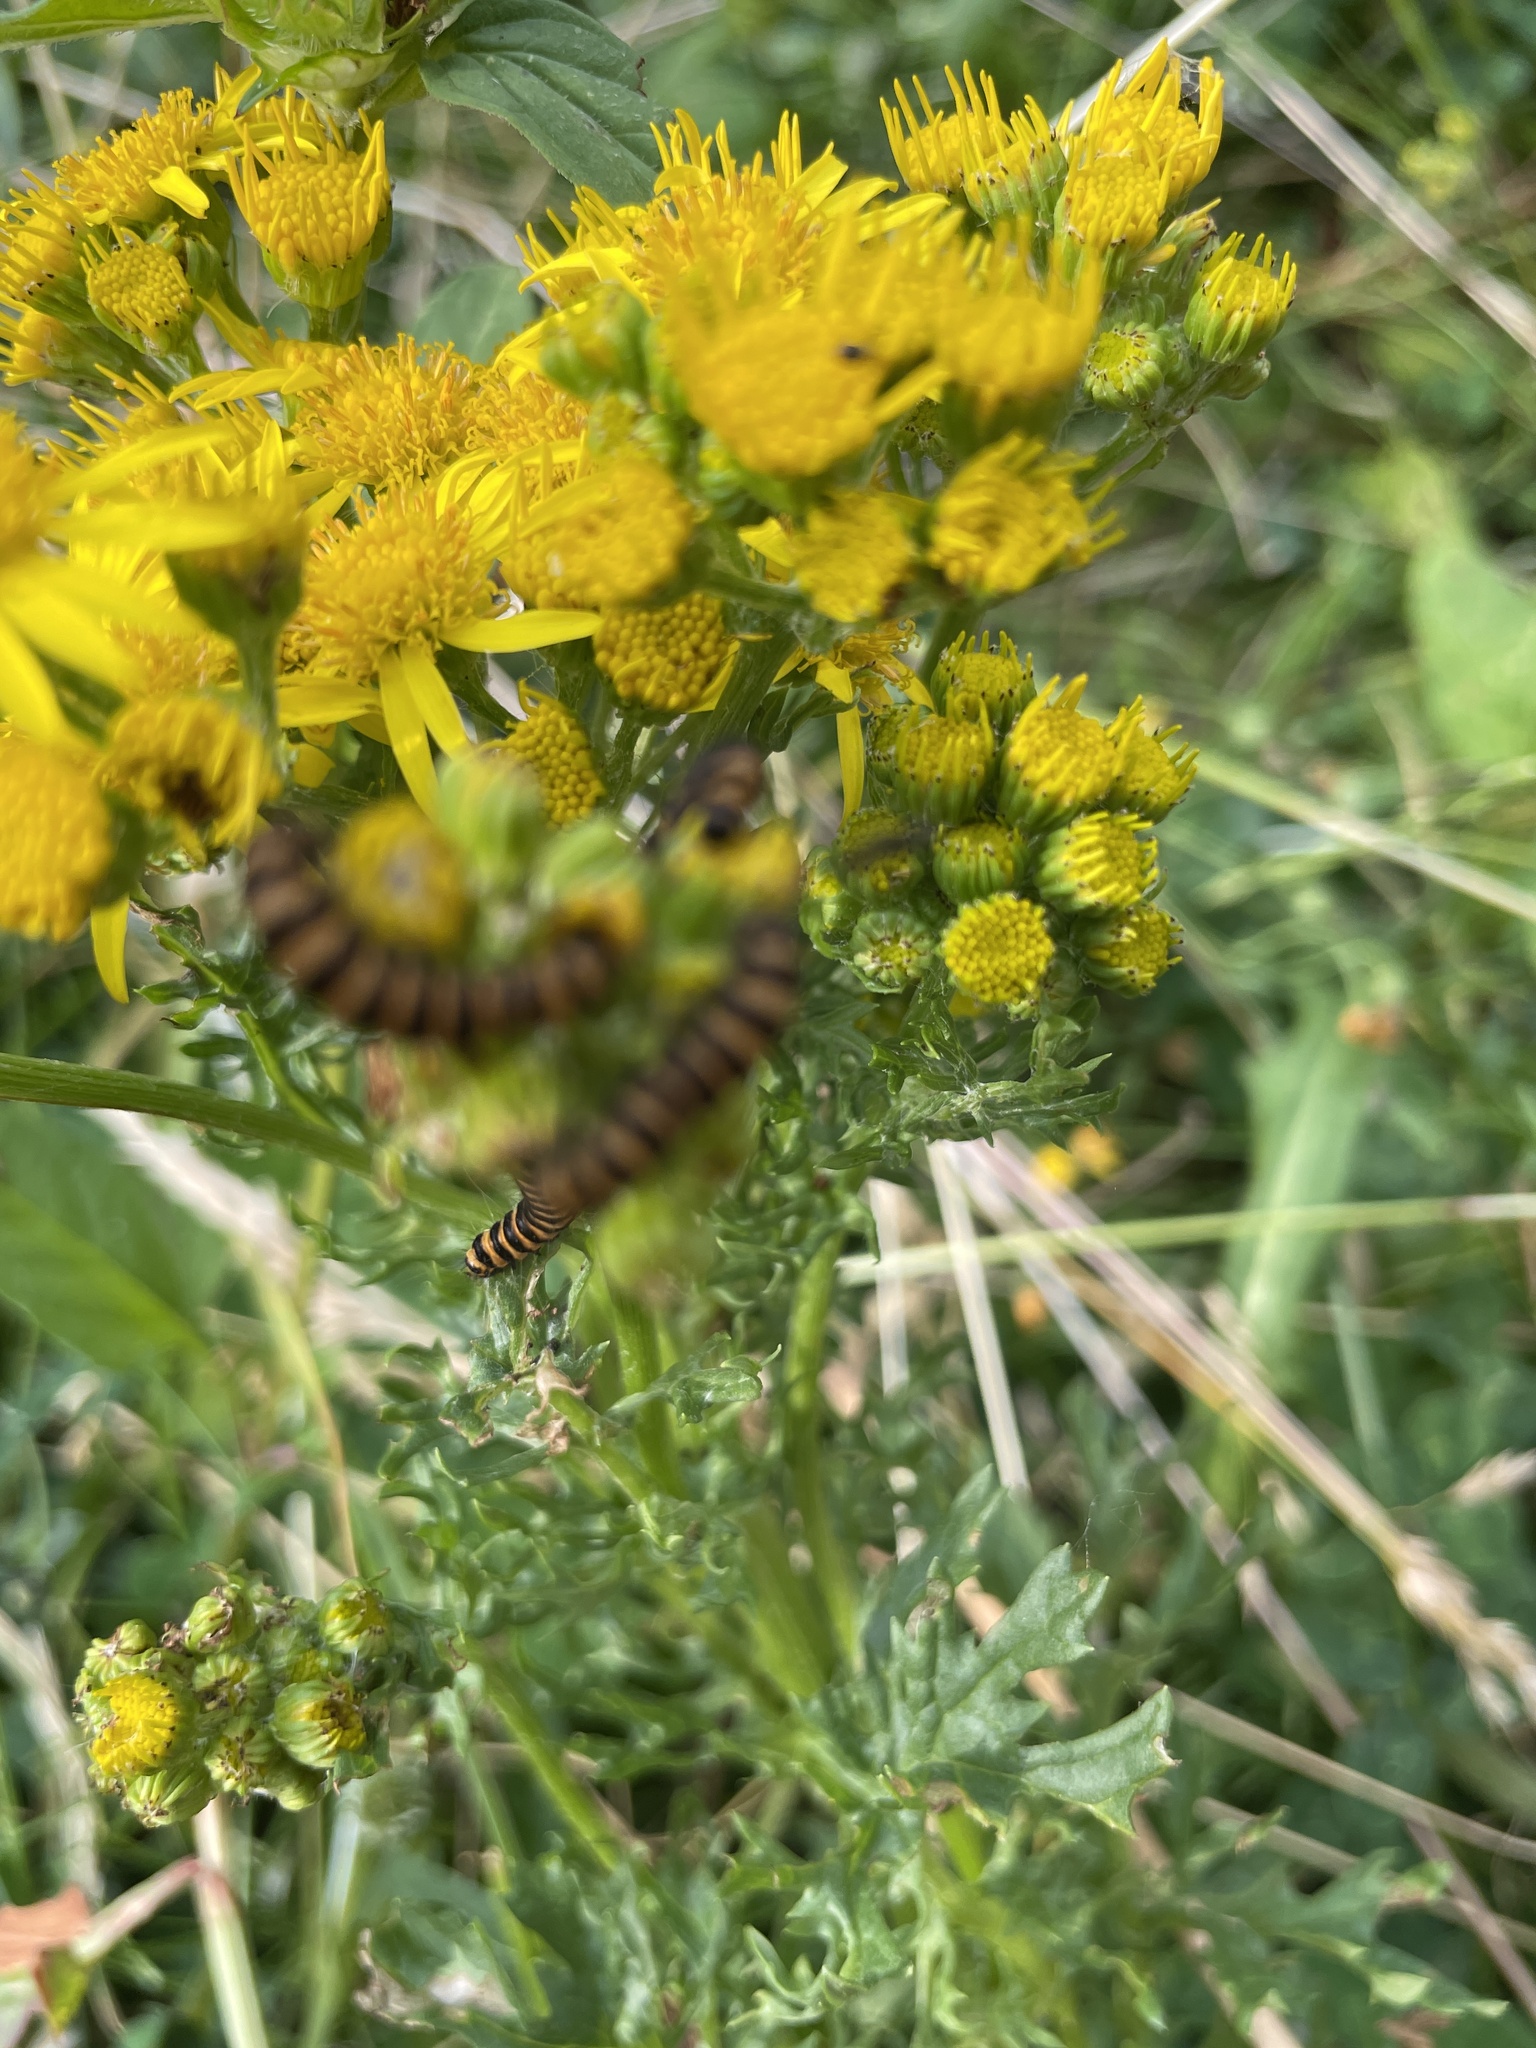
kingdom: Animalia
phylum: Arthropoda
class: Insecta
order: Lepidoptera
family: Erebidae
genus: Tyria
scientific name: Tyria jacobaeae
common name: Cinnabar
